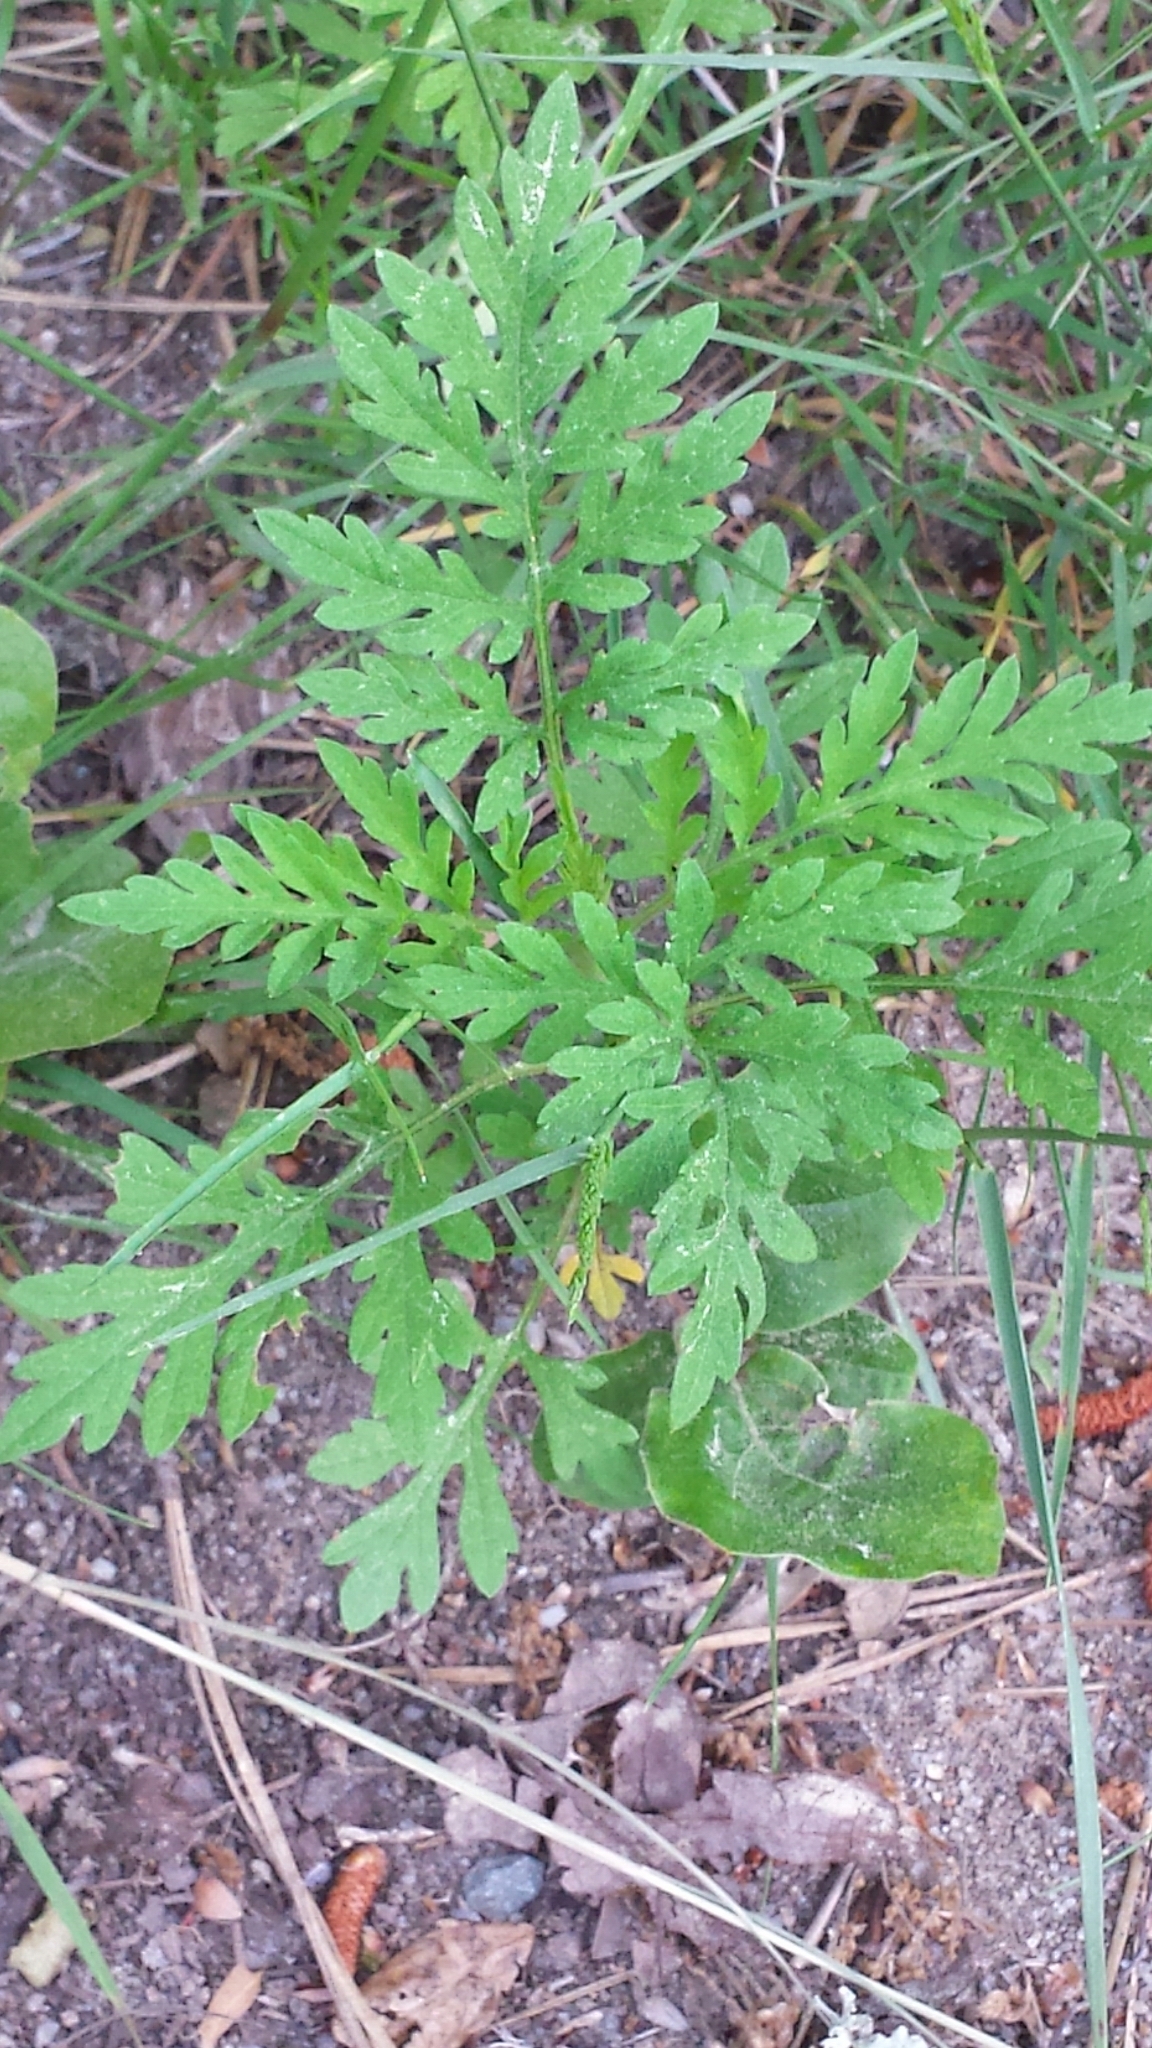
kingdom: Plantae
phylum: Tracheophyta
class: Magnoliopsida
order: Asterales
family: Asteraceae
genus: Ambrosia
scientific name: Ambrosia artemisiifolia
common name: Annual ragweed
